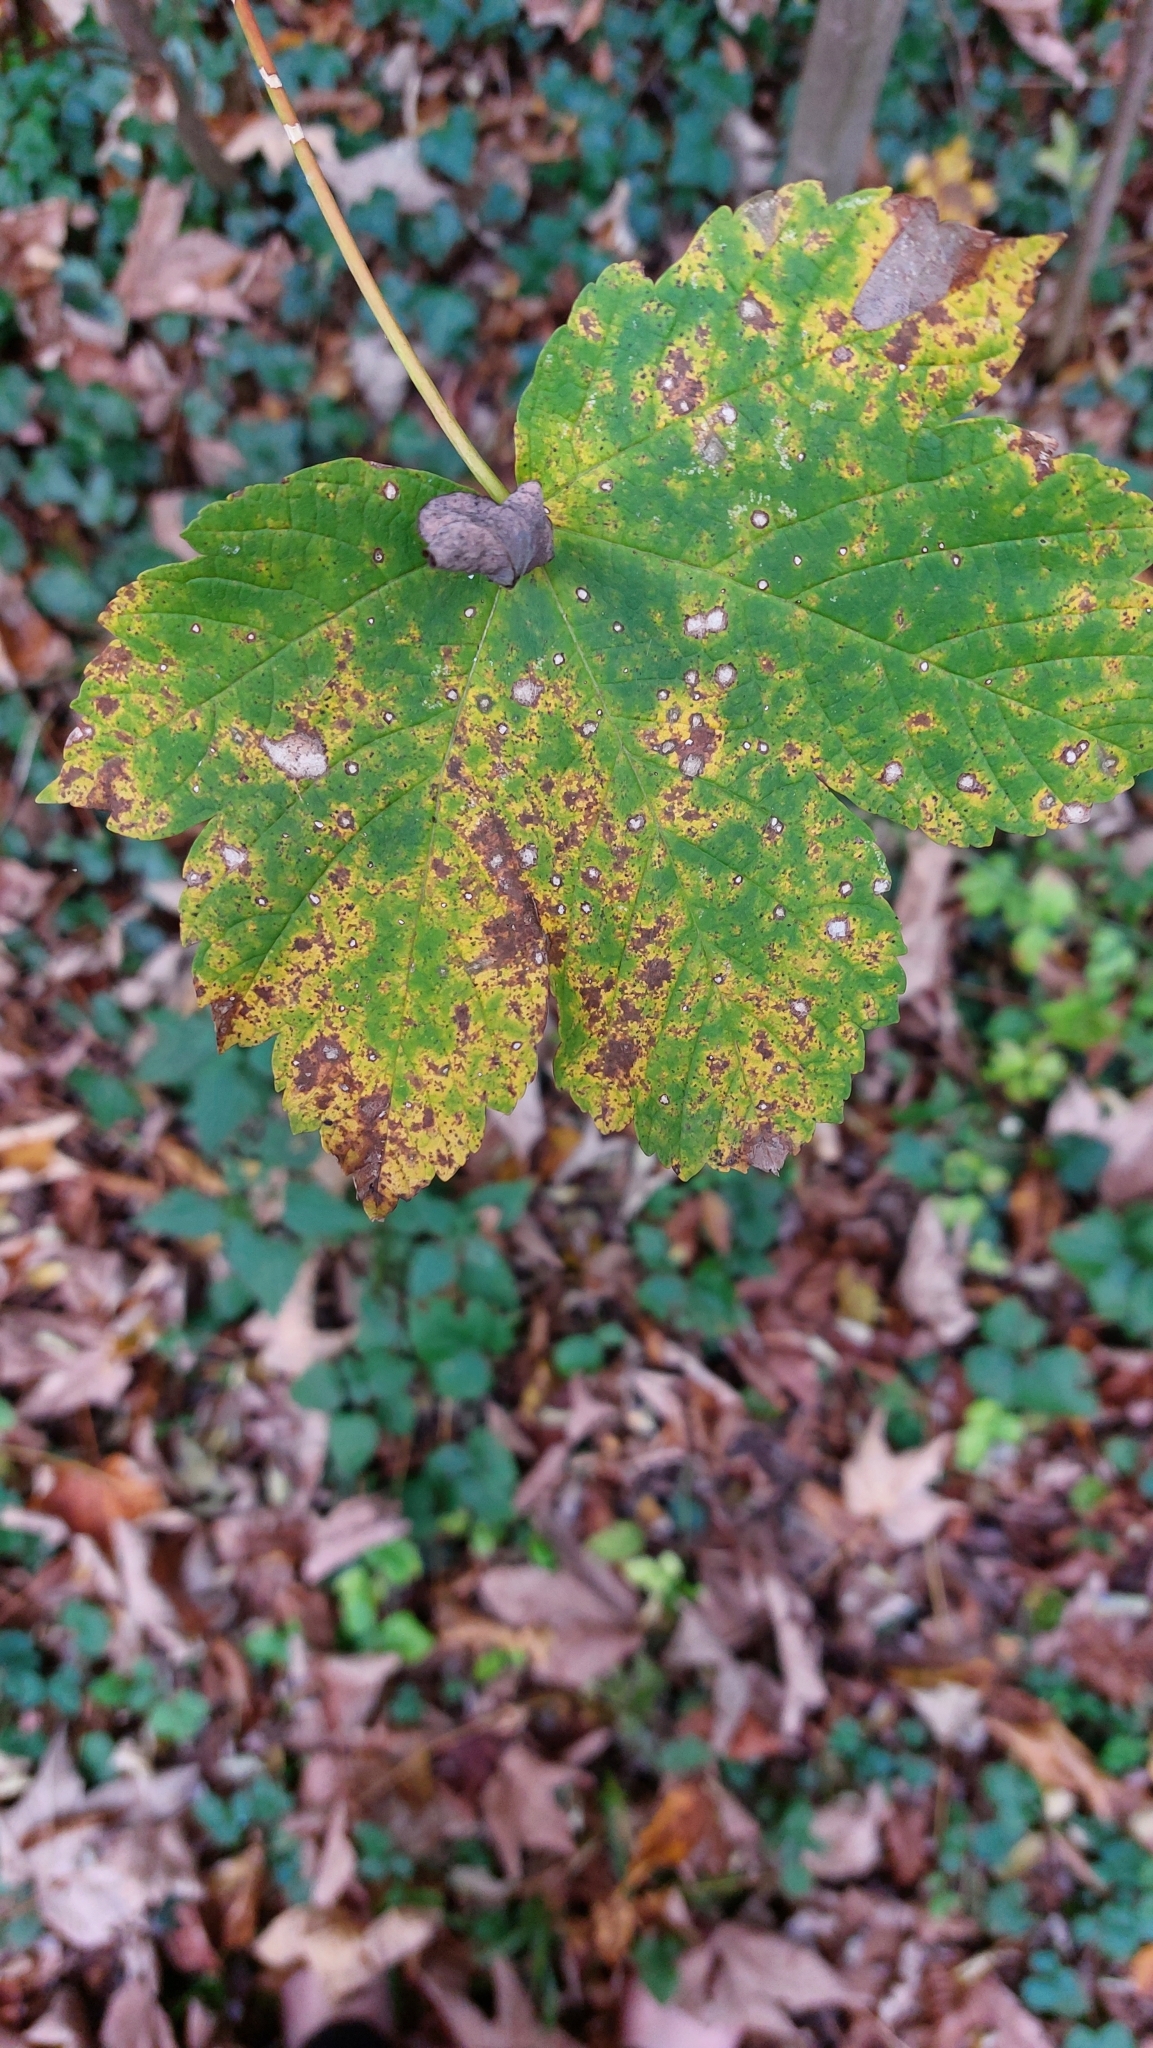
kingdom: Plantae
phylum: Tracheophyta
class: Magnoliopsida
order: Sapindales
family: Sapindaceae
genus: Acer
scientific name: Acer pseudoplatanus
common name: Sycamore
